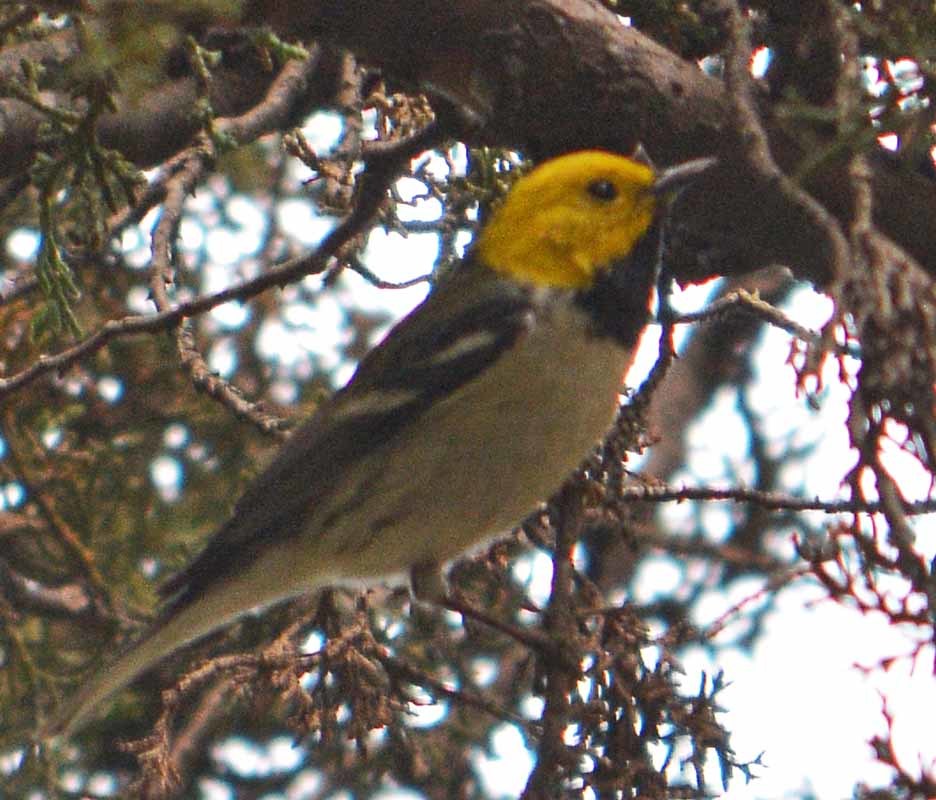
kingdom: Animalia
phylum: Chordata
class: Aves
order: Passeriformes
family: Parulidae
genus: Setophaga
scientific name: Setophaga occidentalis
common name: Hermit warbler
